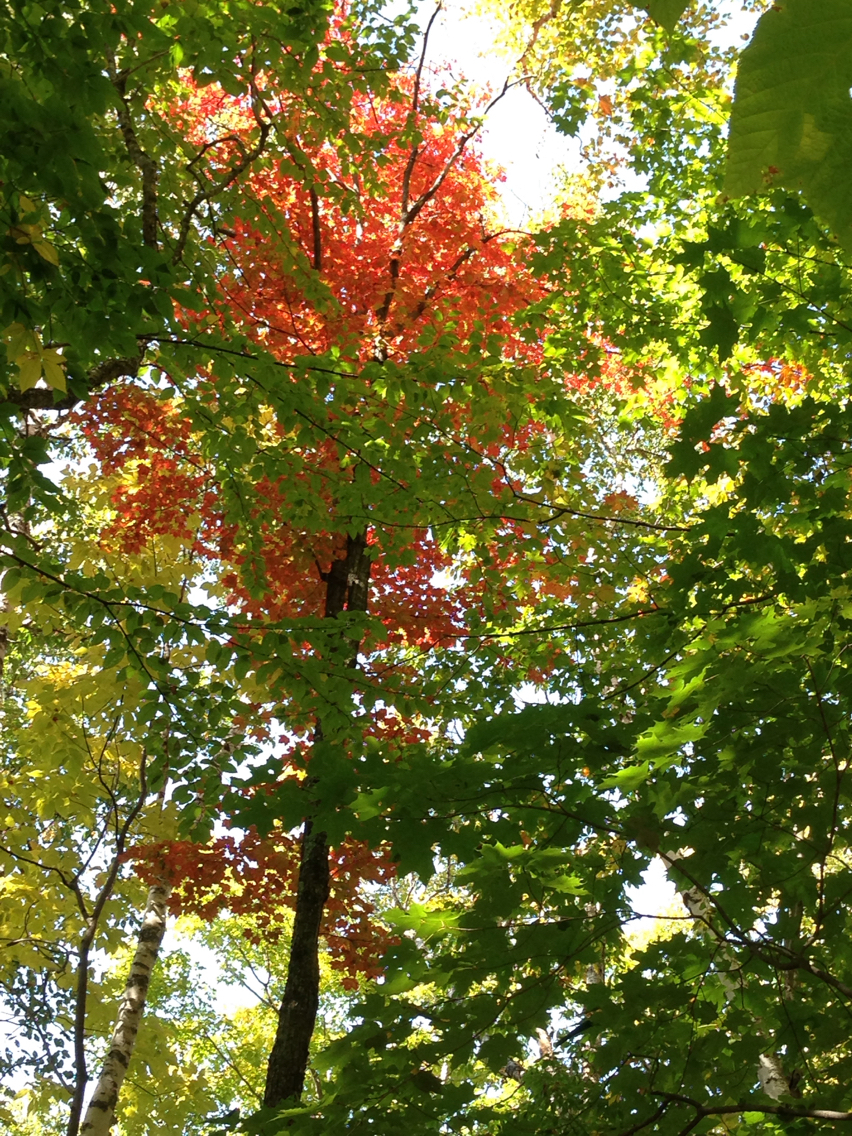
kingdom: Plantae
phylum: Tracheophyta
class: Magnoliopsida
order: Sapindales
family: Sapindaceae
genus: Acer
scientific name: Acer rubrum
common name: Red maple
